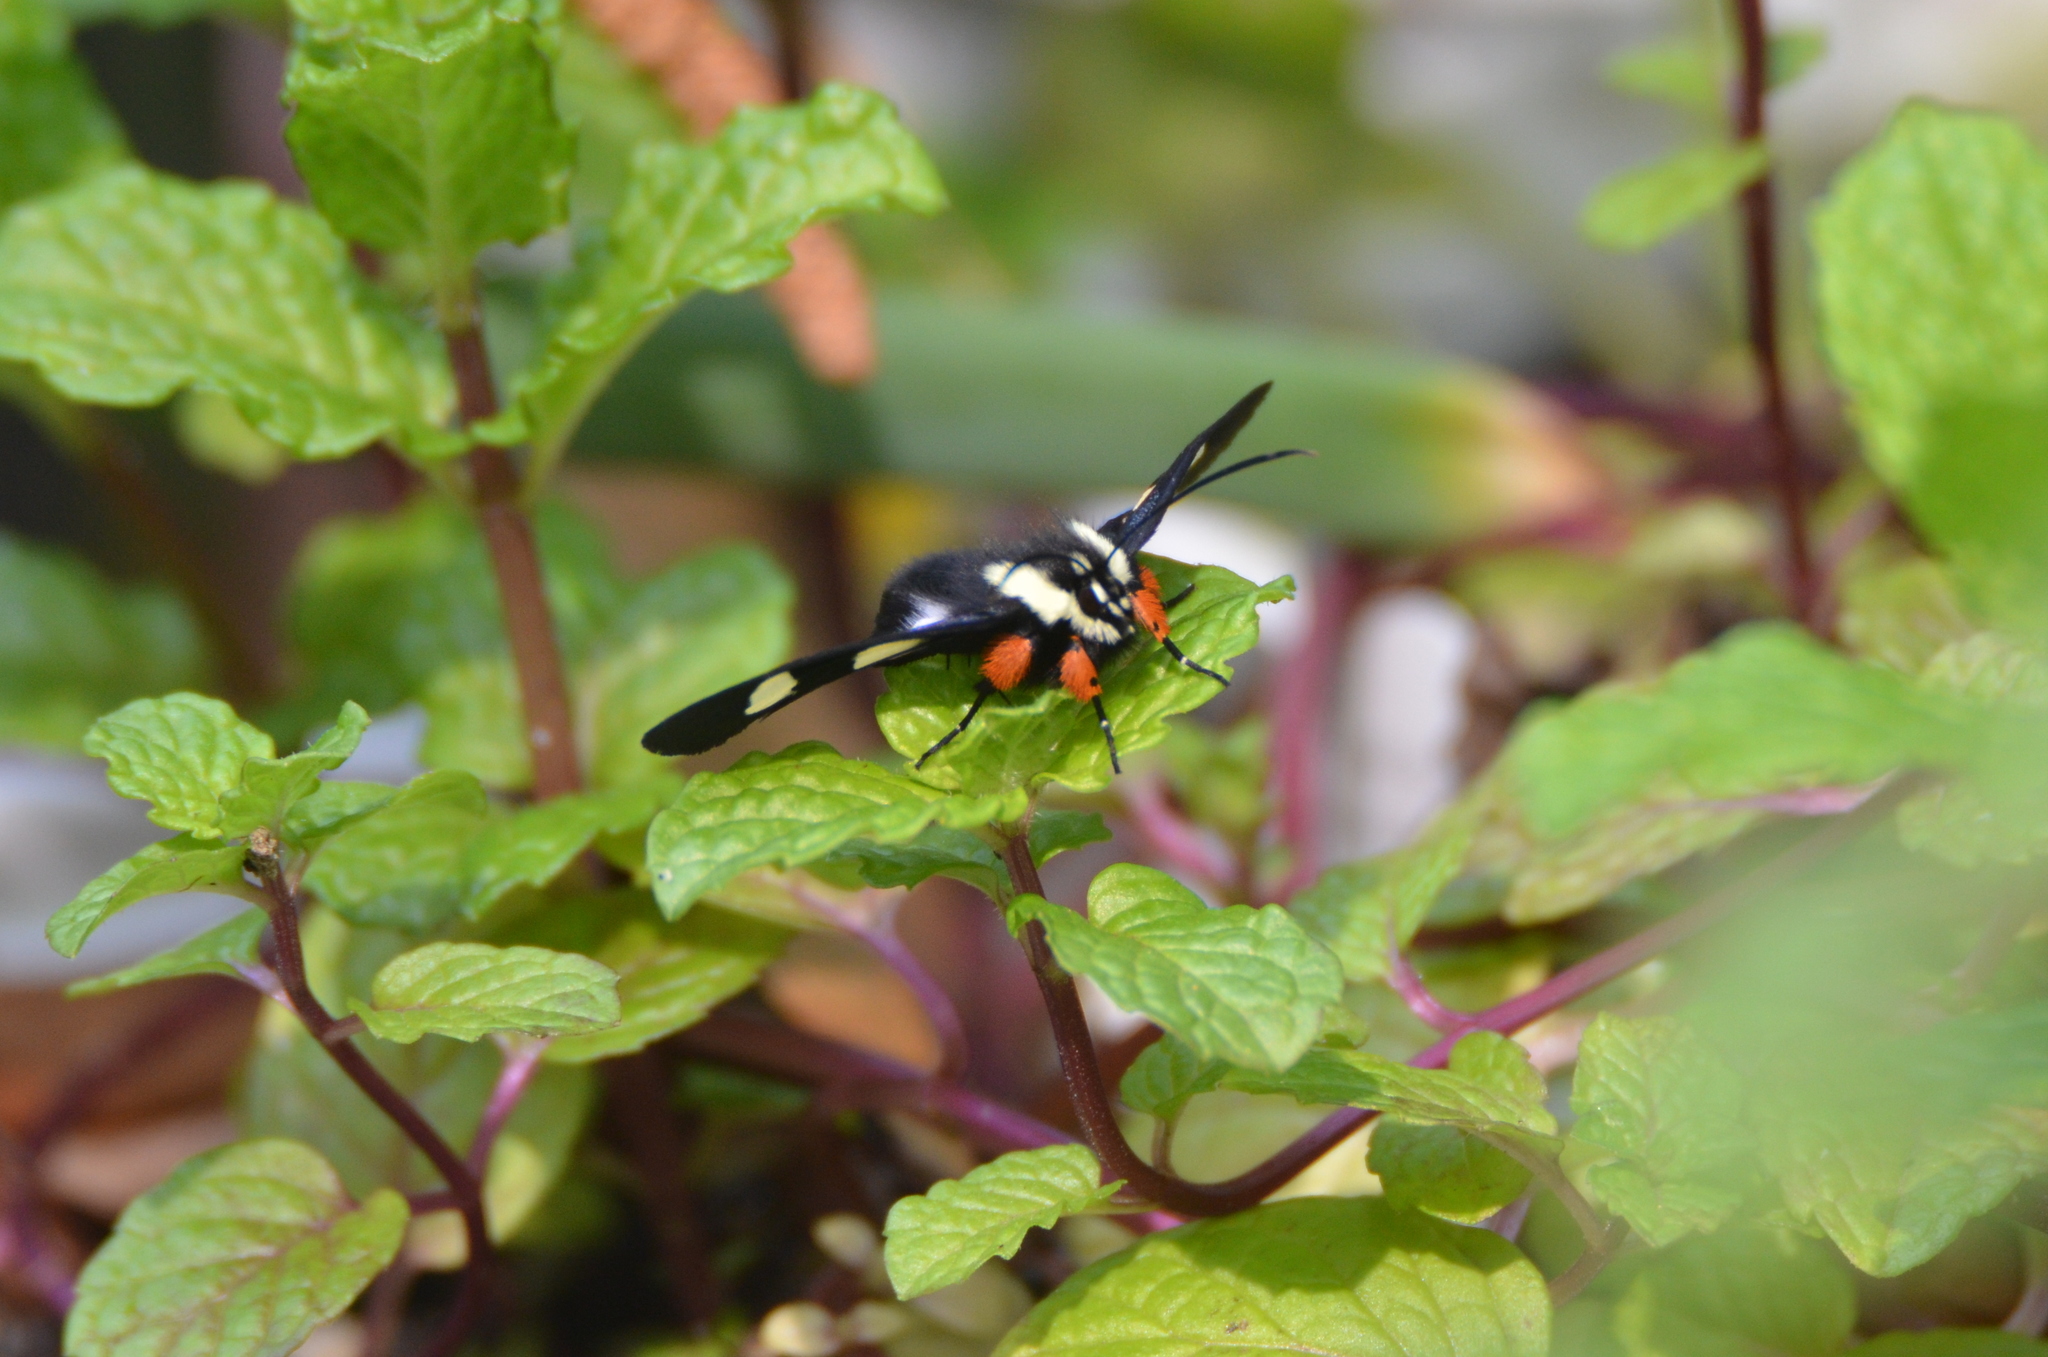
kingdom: Animalia
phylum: Arthropoda
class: Insecta
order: Lepidoptera
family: Noctuidae
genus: Alypia
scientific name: Alypia octomaculata
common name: Eight-spotted forester
